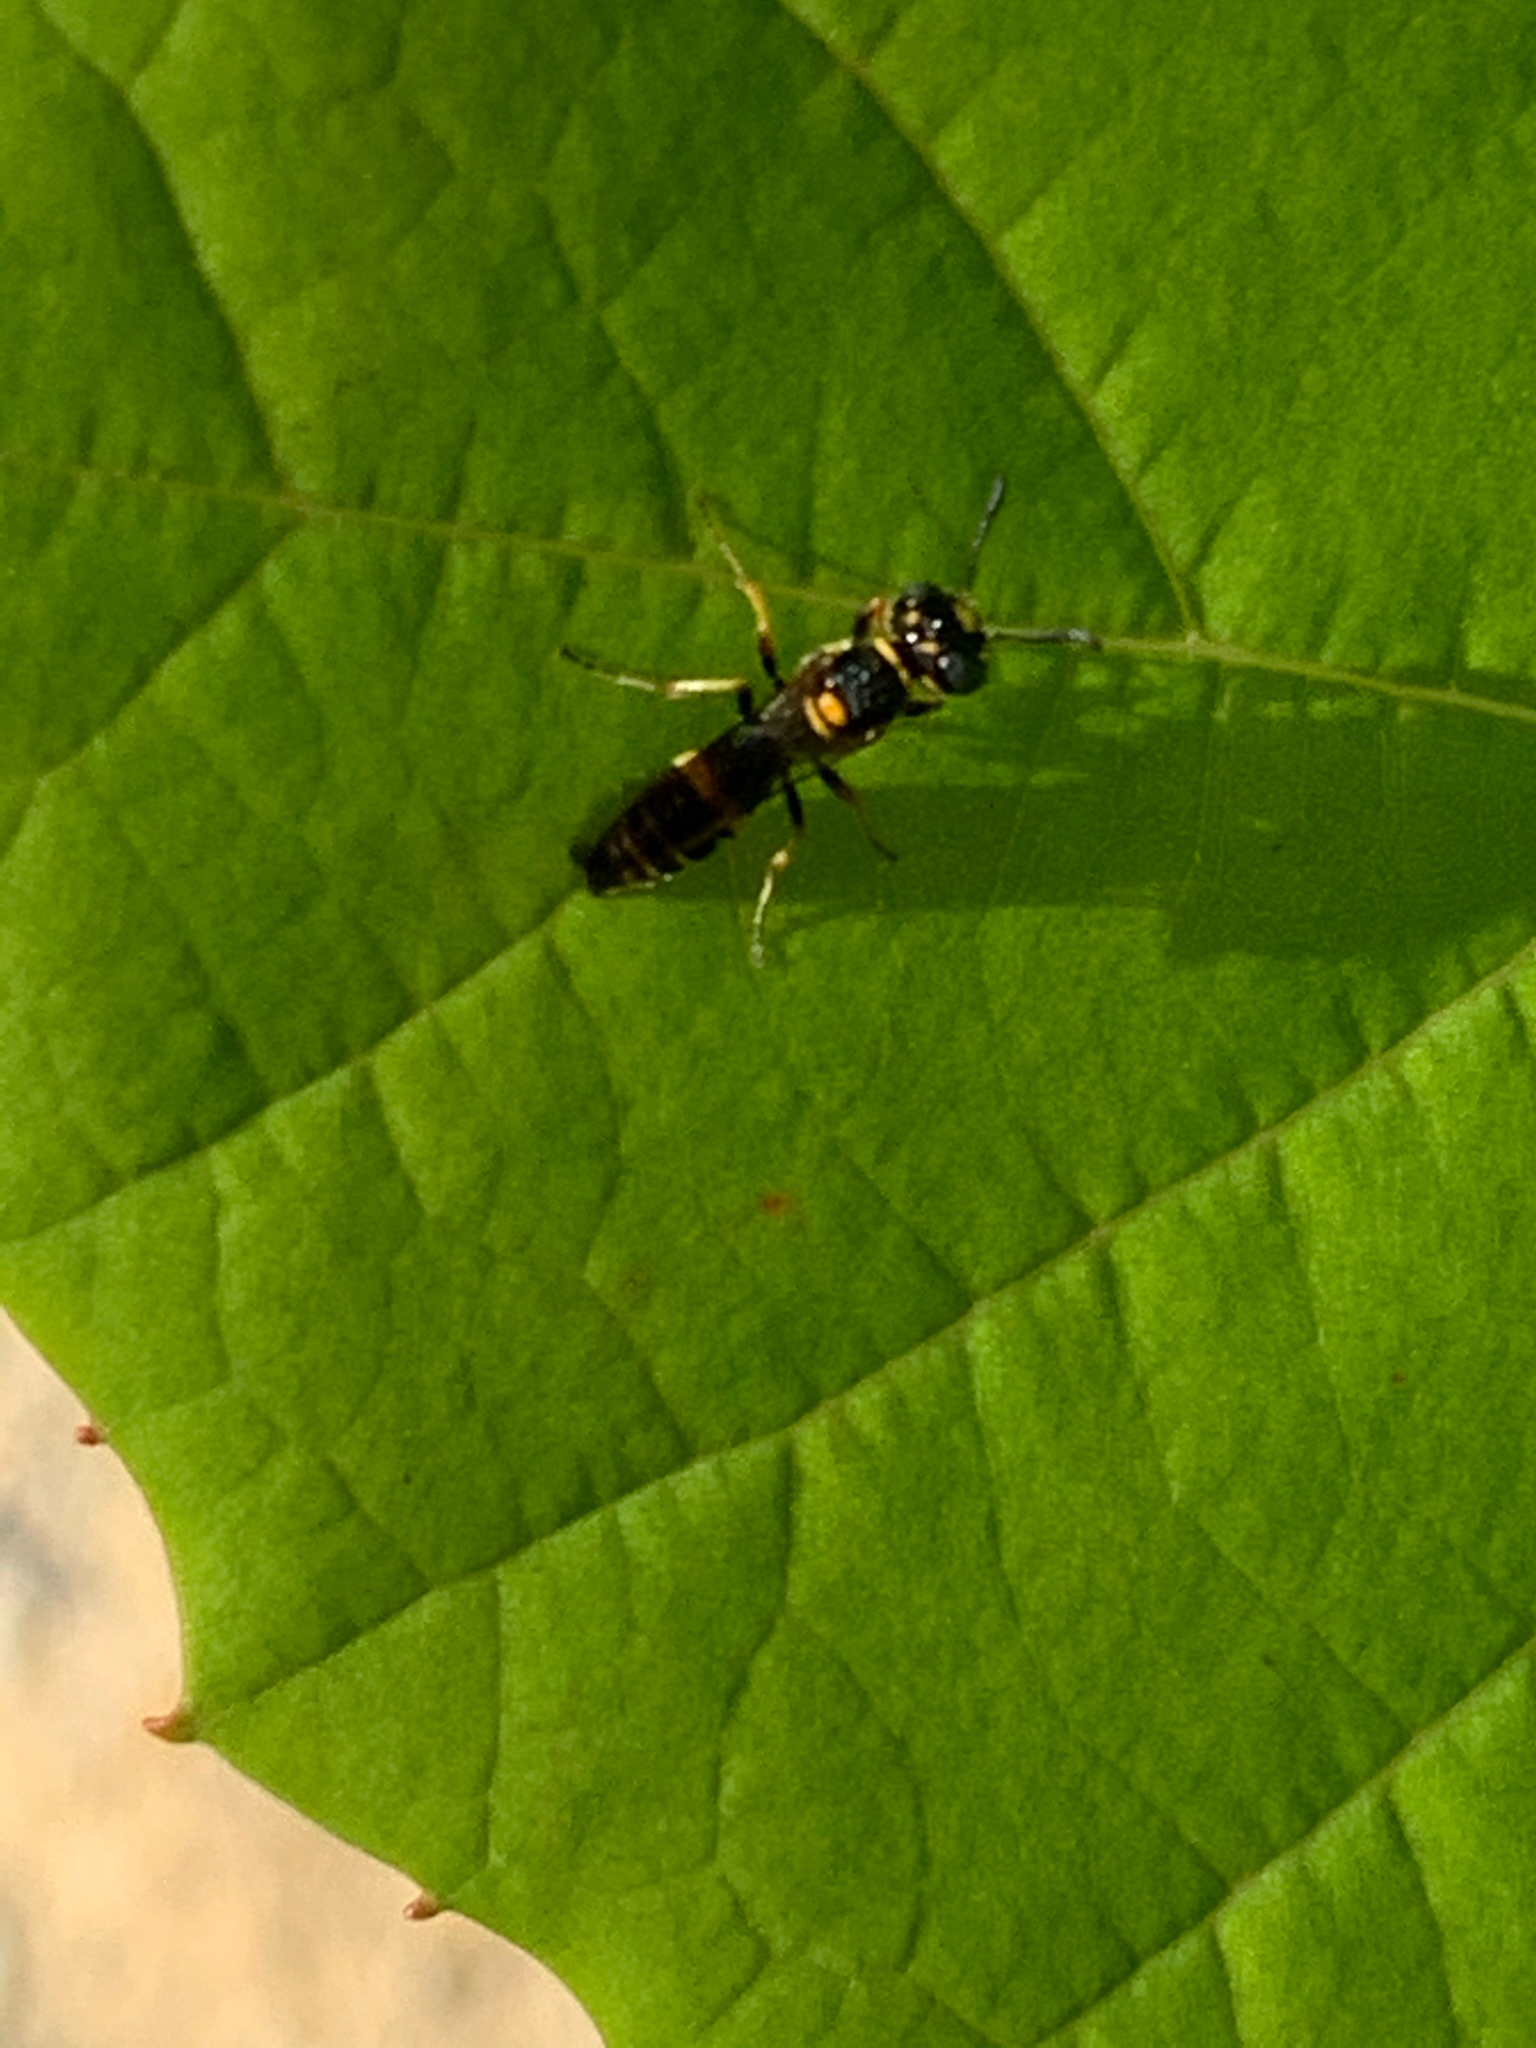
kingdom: Animalia
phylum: Arthropoda
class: Insecta
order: Hymenoptera
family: Crabronidae
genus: Philanthus
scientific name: Philanthus gibbosus
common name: Humped beewolf
